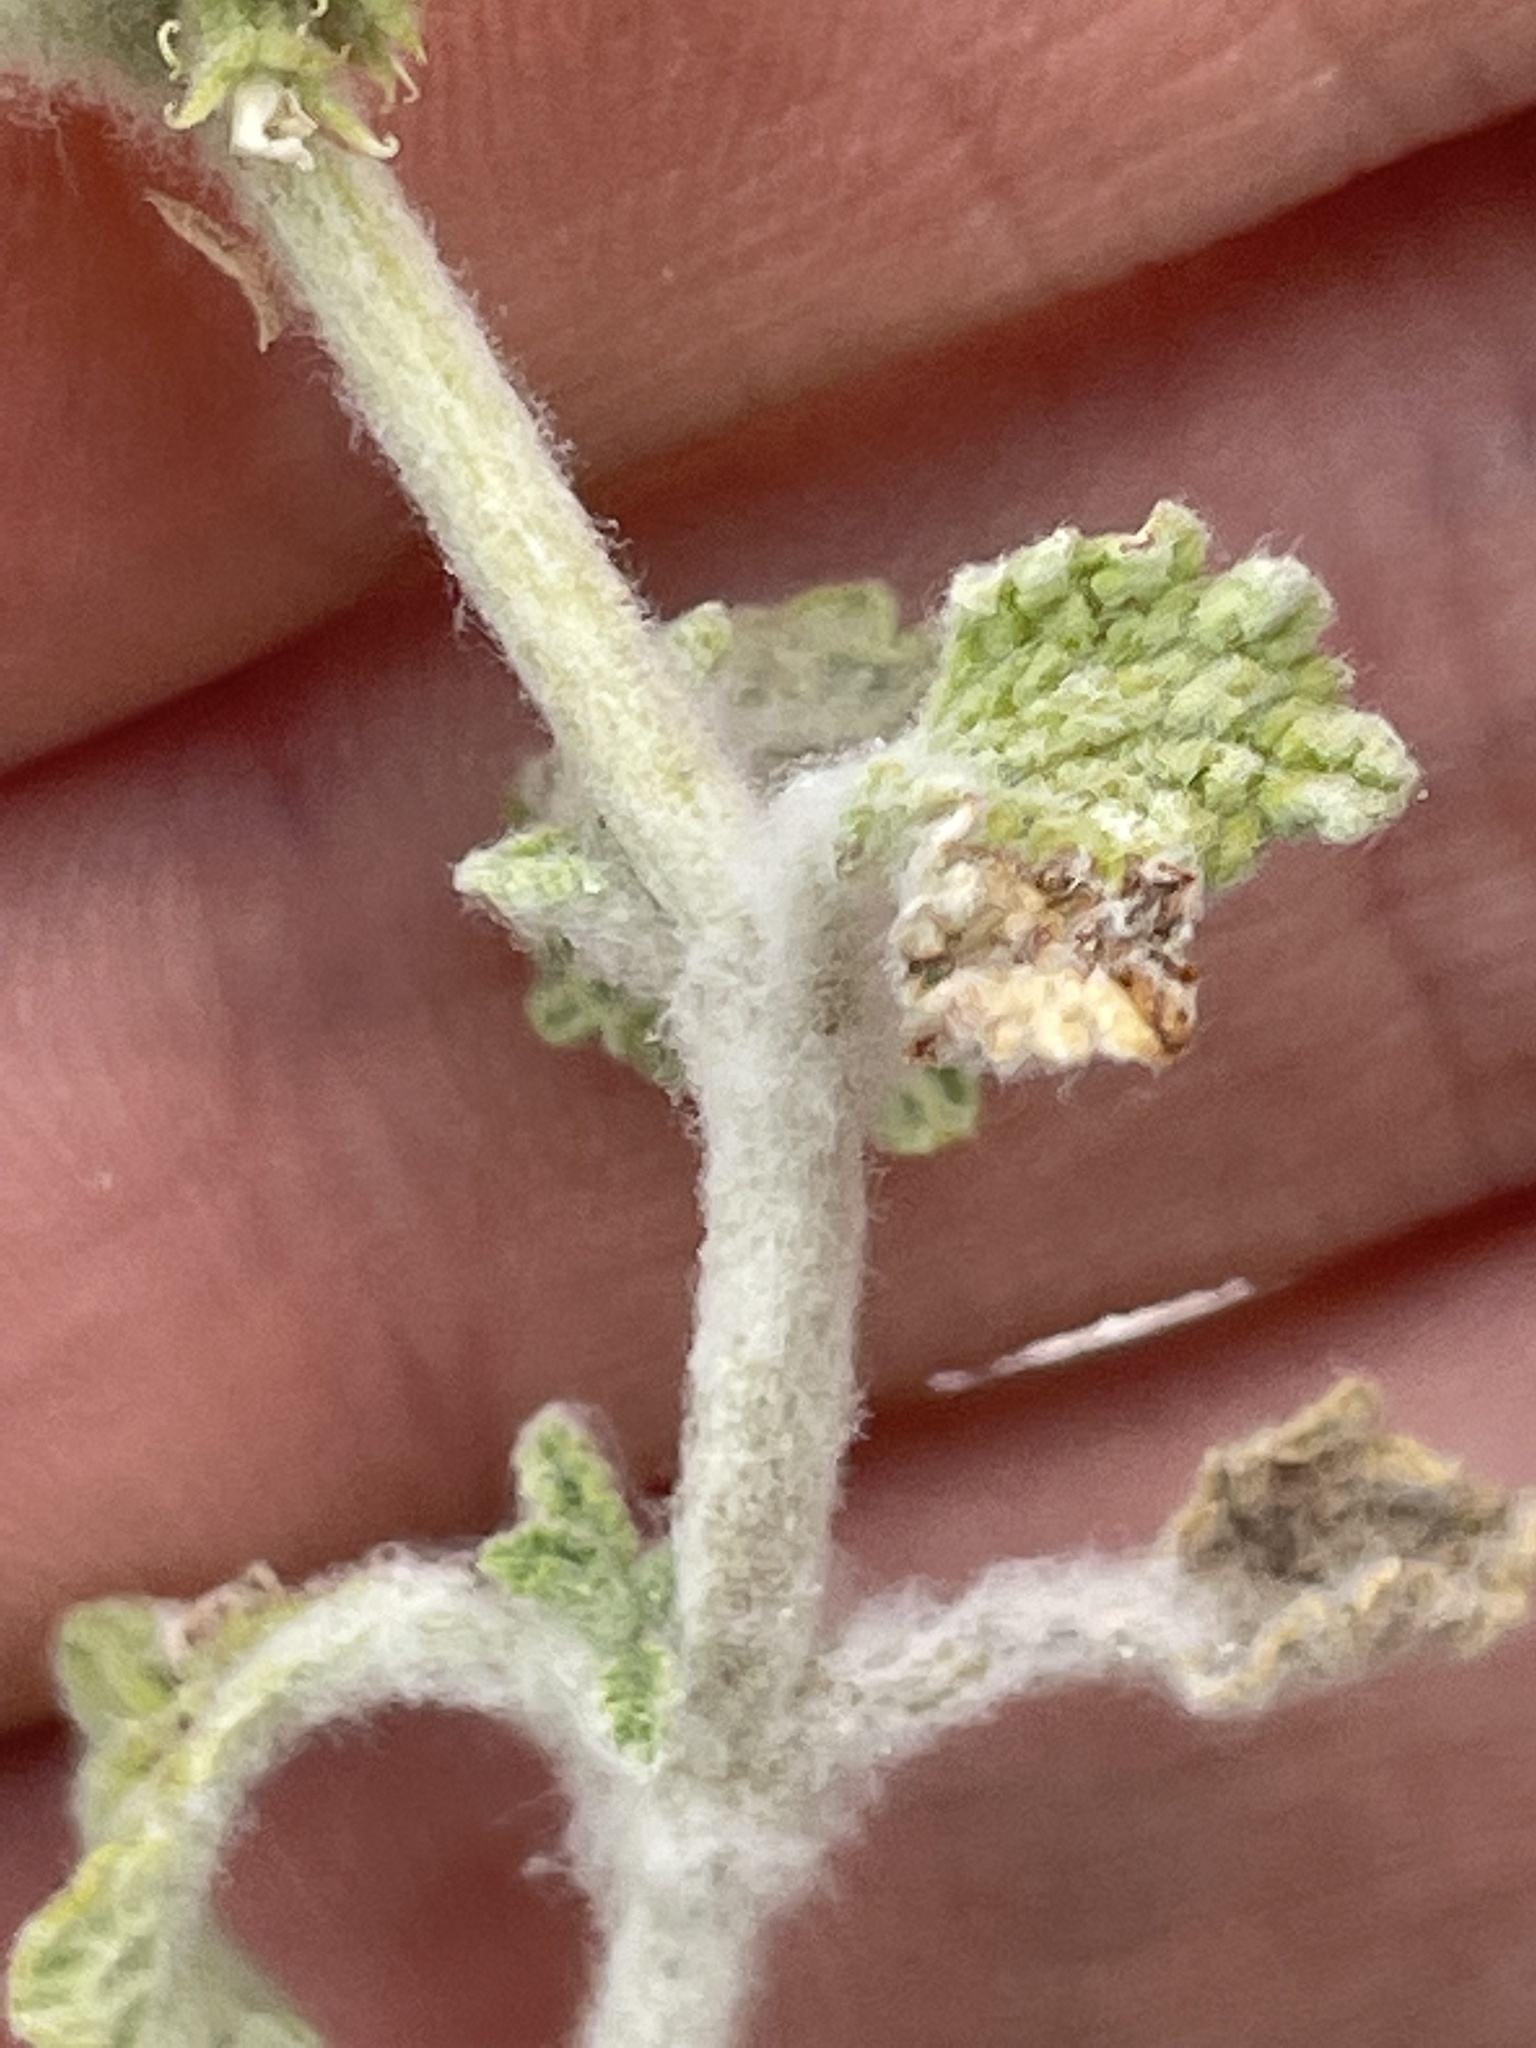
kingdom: Plantae
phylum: Tracheophyta
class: Magnoliopsida
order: Lamiales
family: Lamiaceae
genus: Marrubium
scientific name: Marrubium vulgare
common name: Horehound
